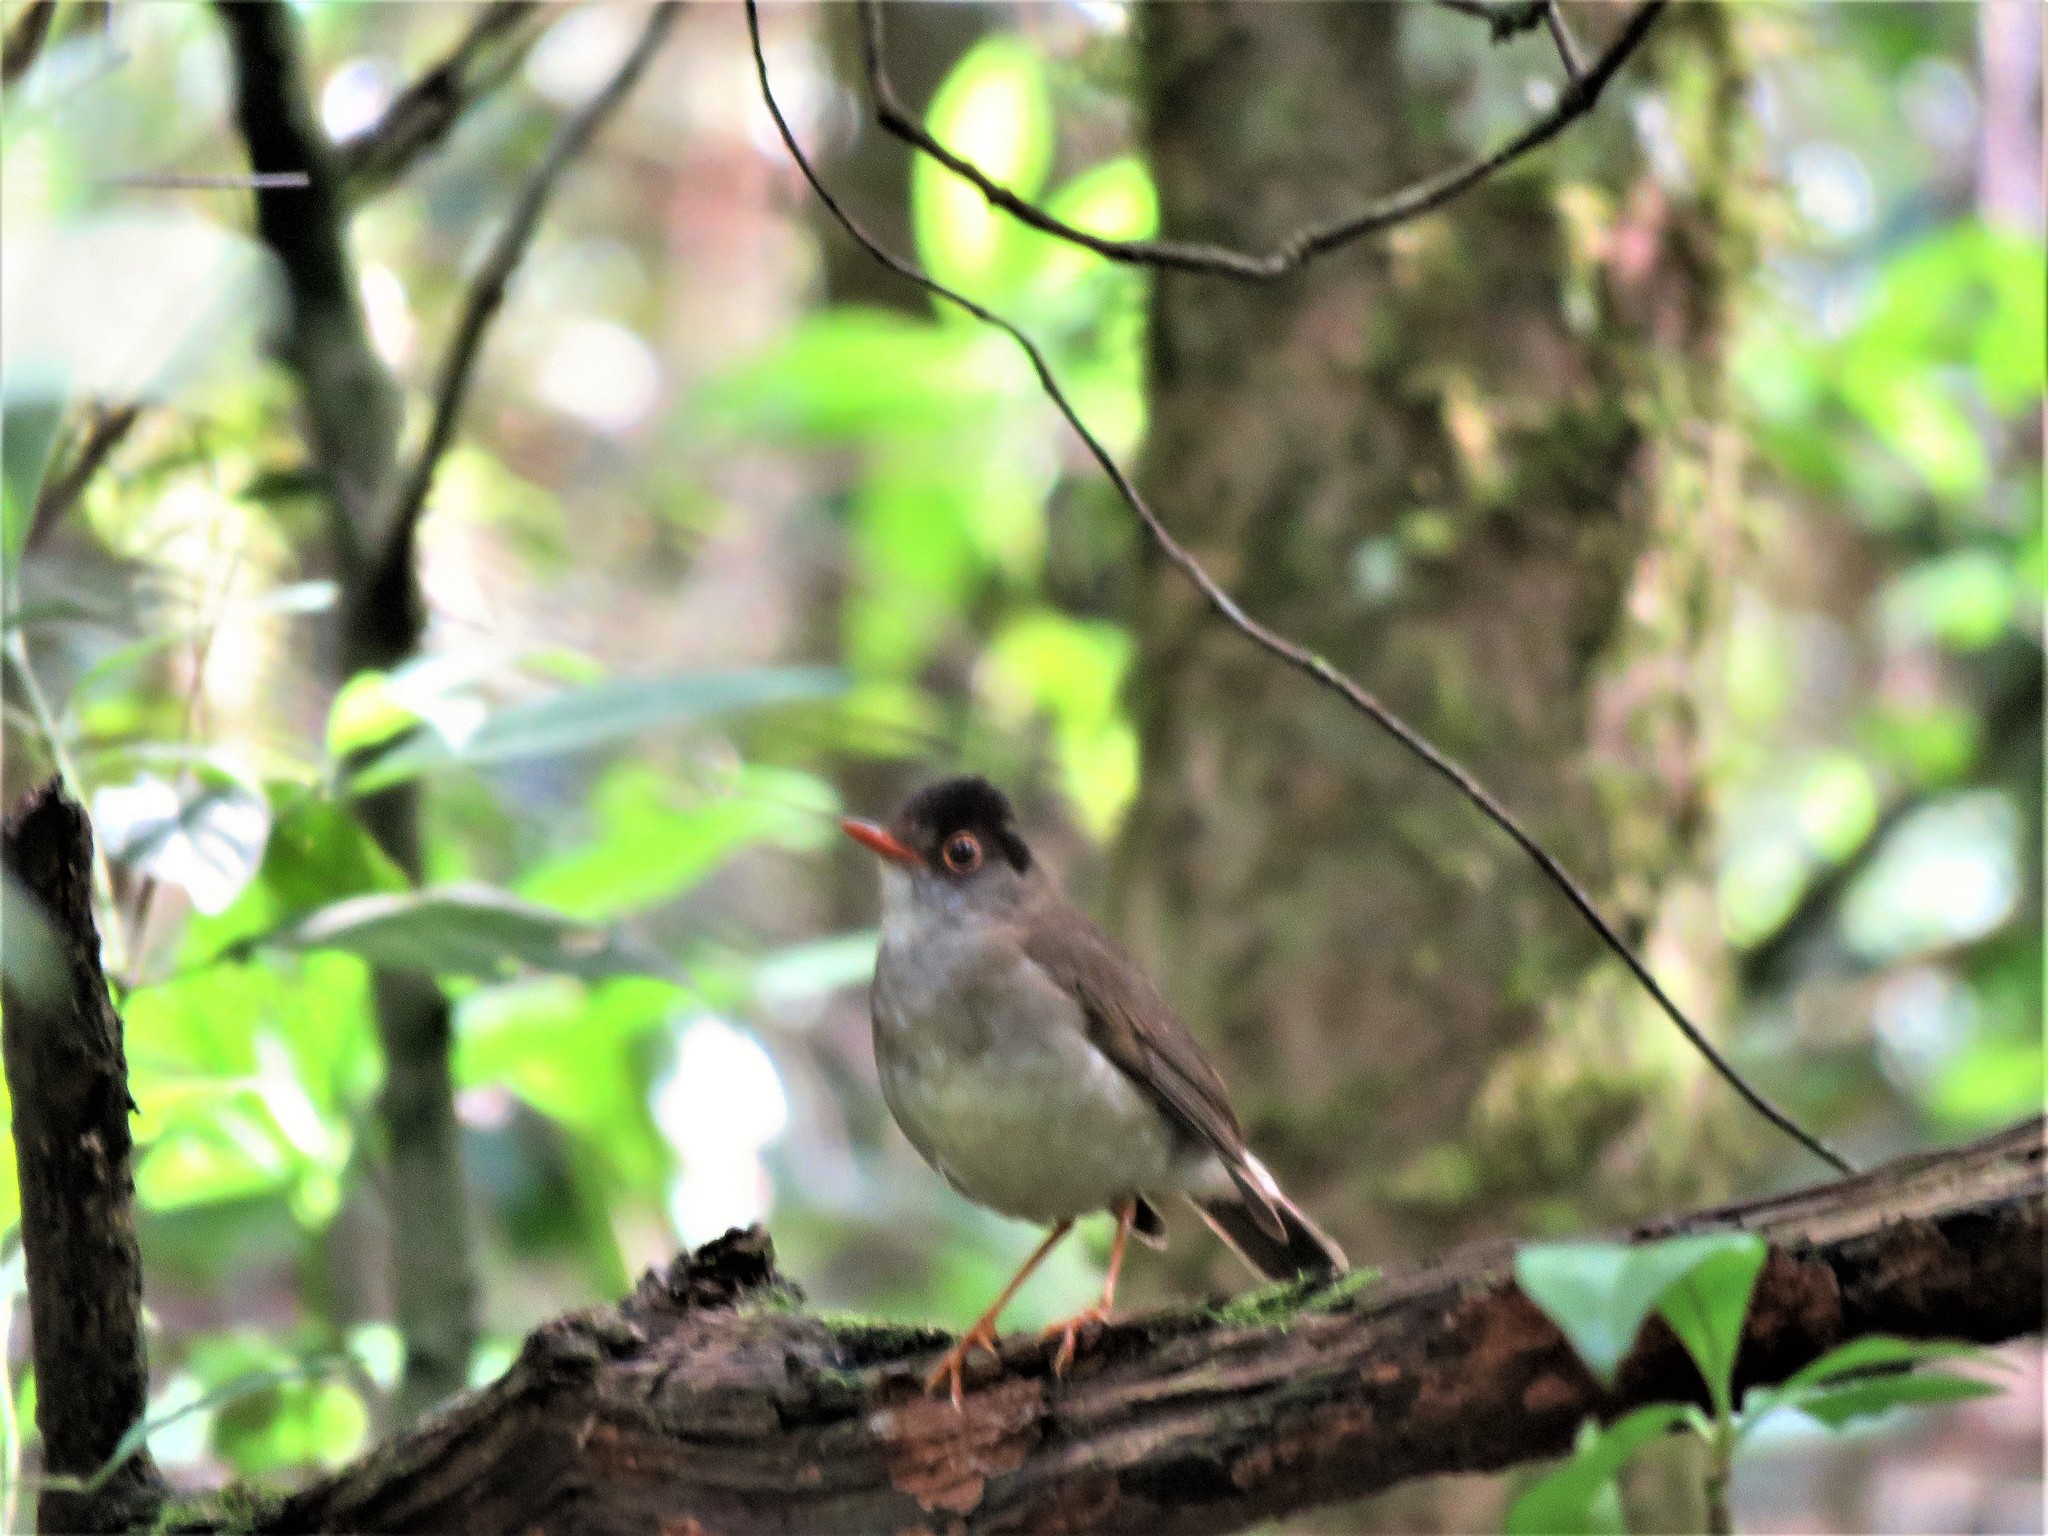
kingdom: Animalia
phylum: Chordata
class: Aves
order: Passeriformes
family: Turdidae
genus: Catharus
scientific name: Catharus mexicanus
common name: Black-headed nightingale-thrush
